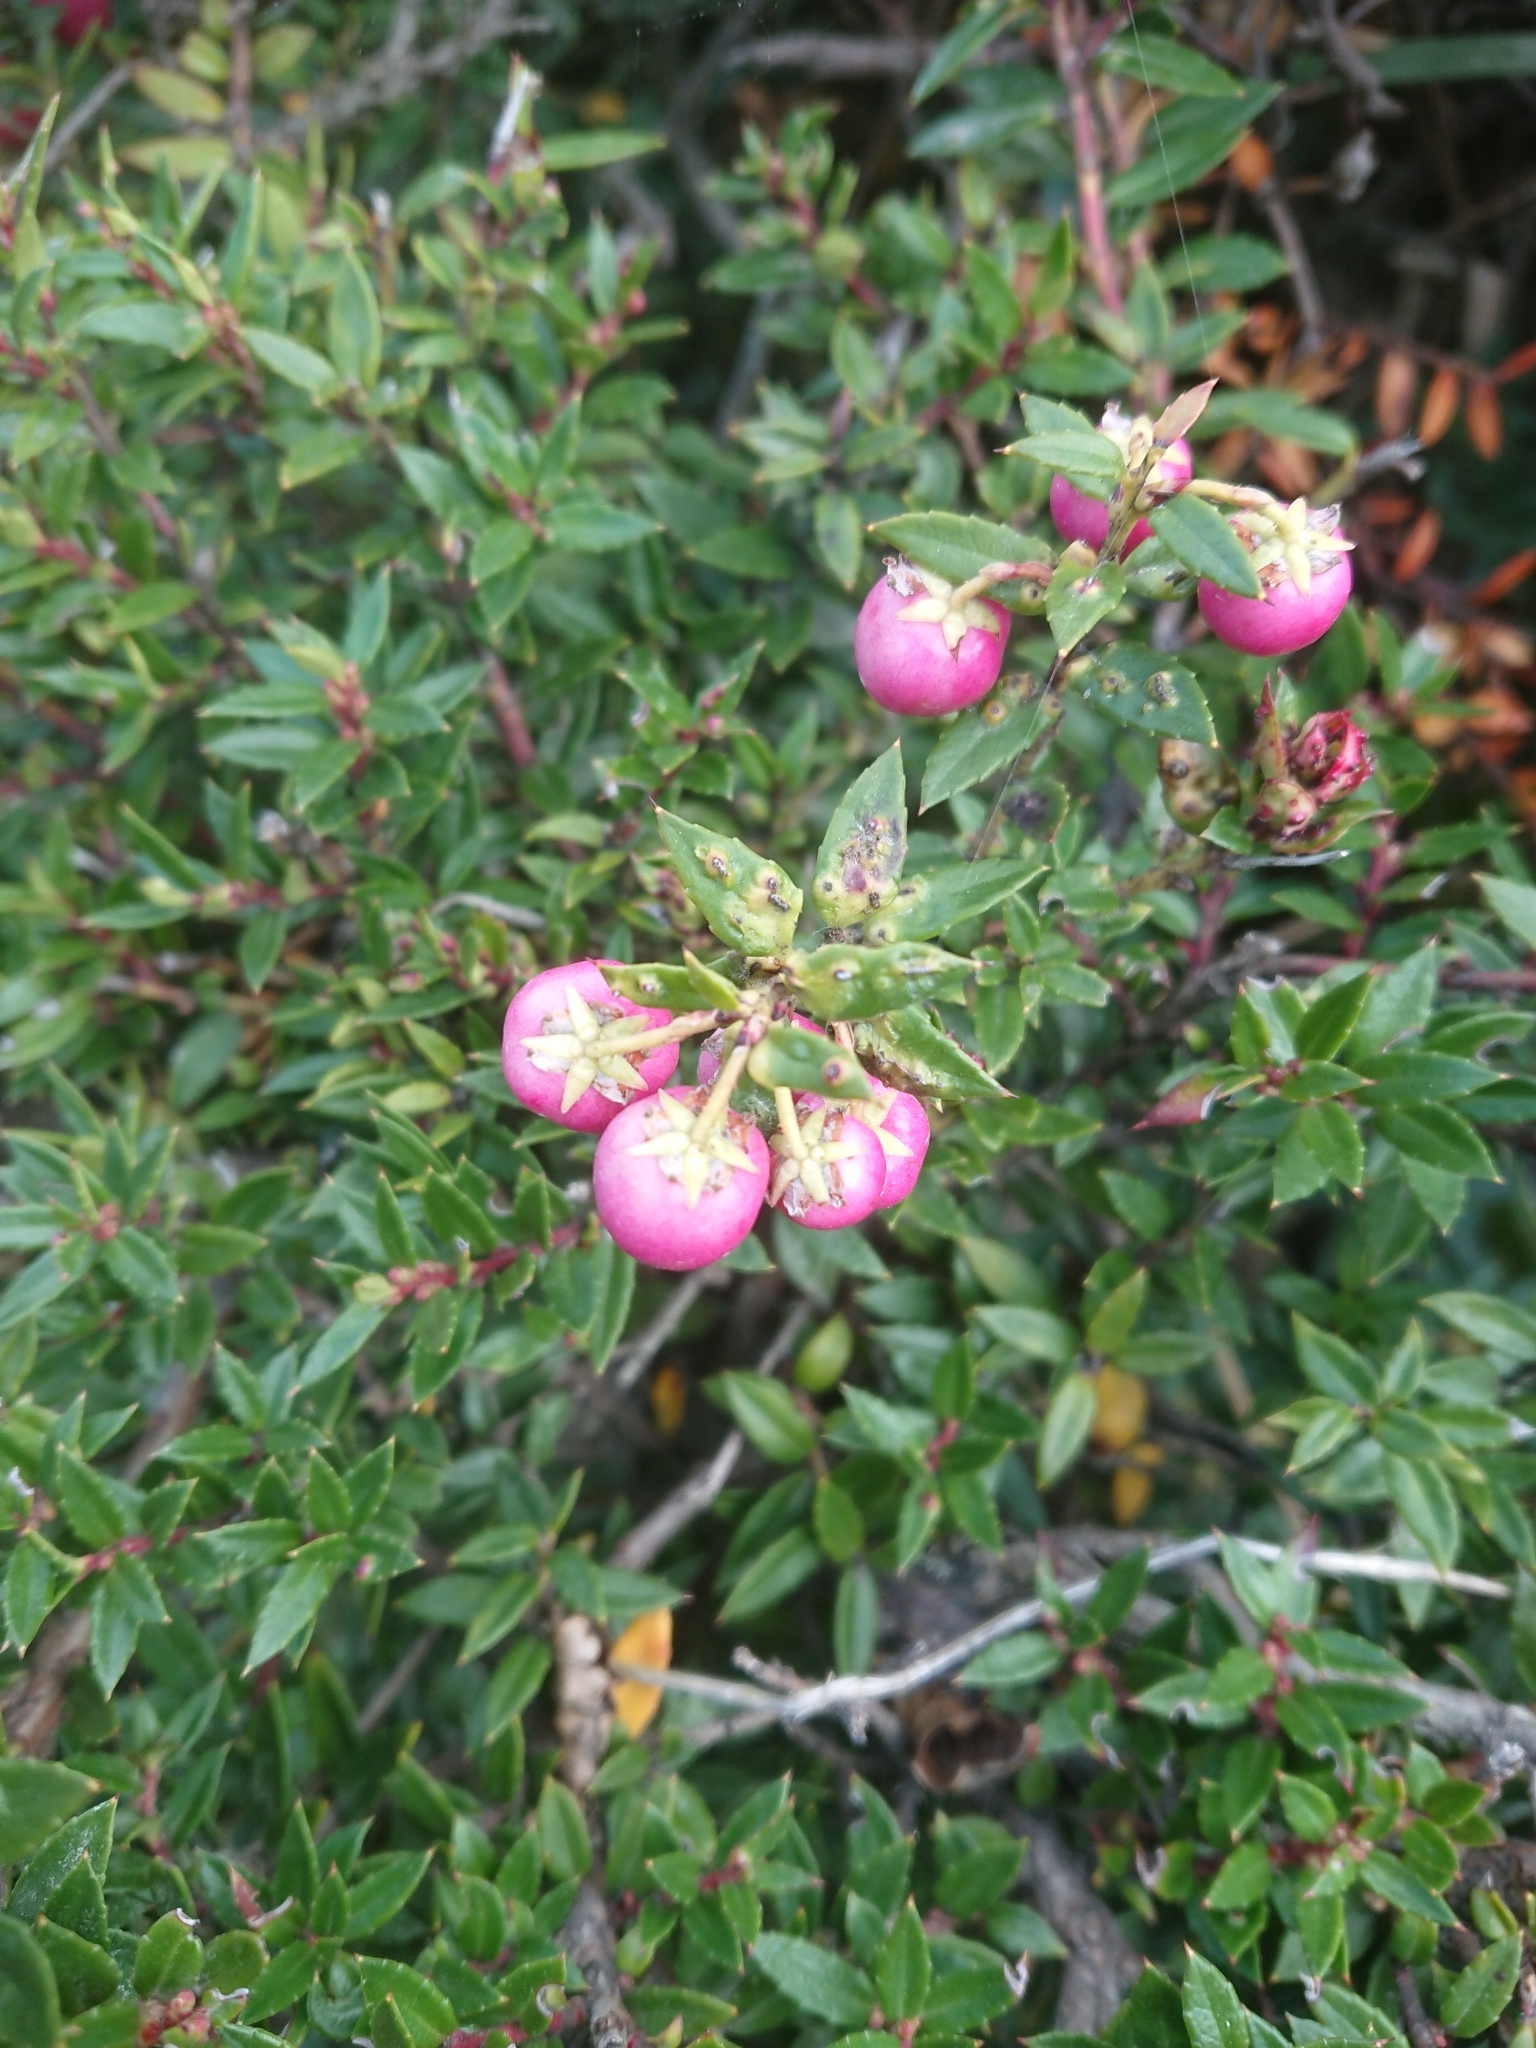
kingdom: Plantae
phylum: Tracheophyta
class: Magnoliopsida
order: Ericales
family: Ericaceae
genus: Gaultheria
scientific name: Gaultheria mucronata
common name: Prickly heath
